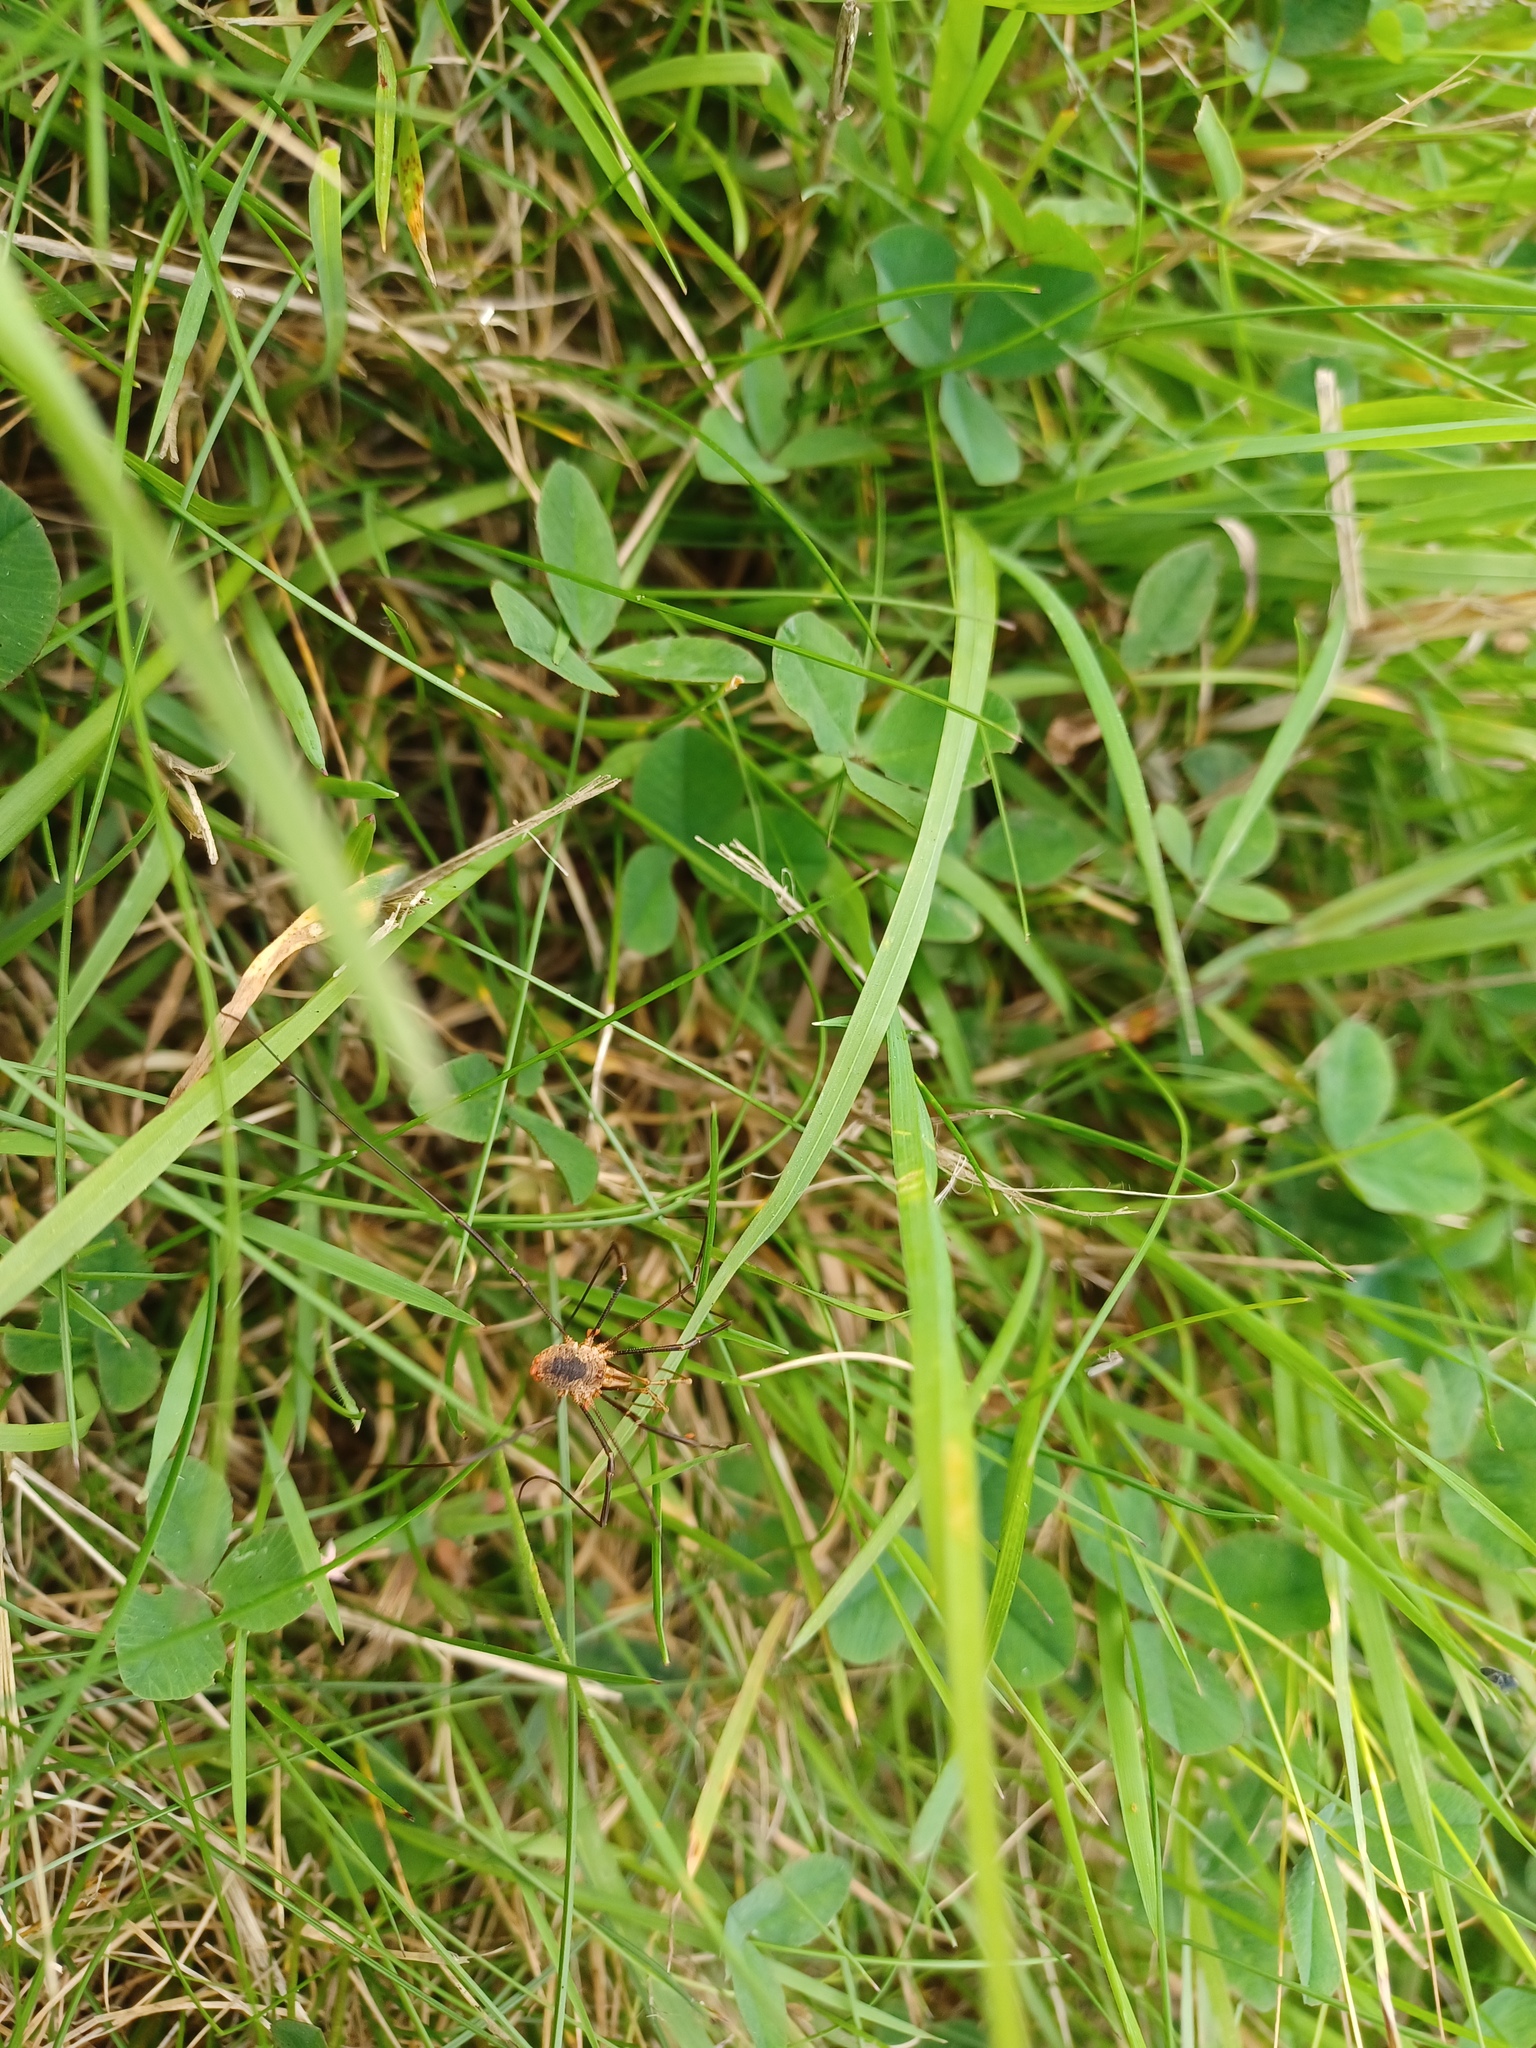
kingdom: Animalia
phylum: Arthropoda
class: Arachnida
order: Opiliones
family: Phalangiidae
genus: Phalangium
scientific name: Phalangium opilio
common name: Daddy longleg
